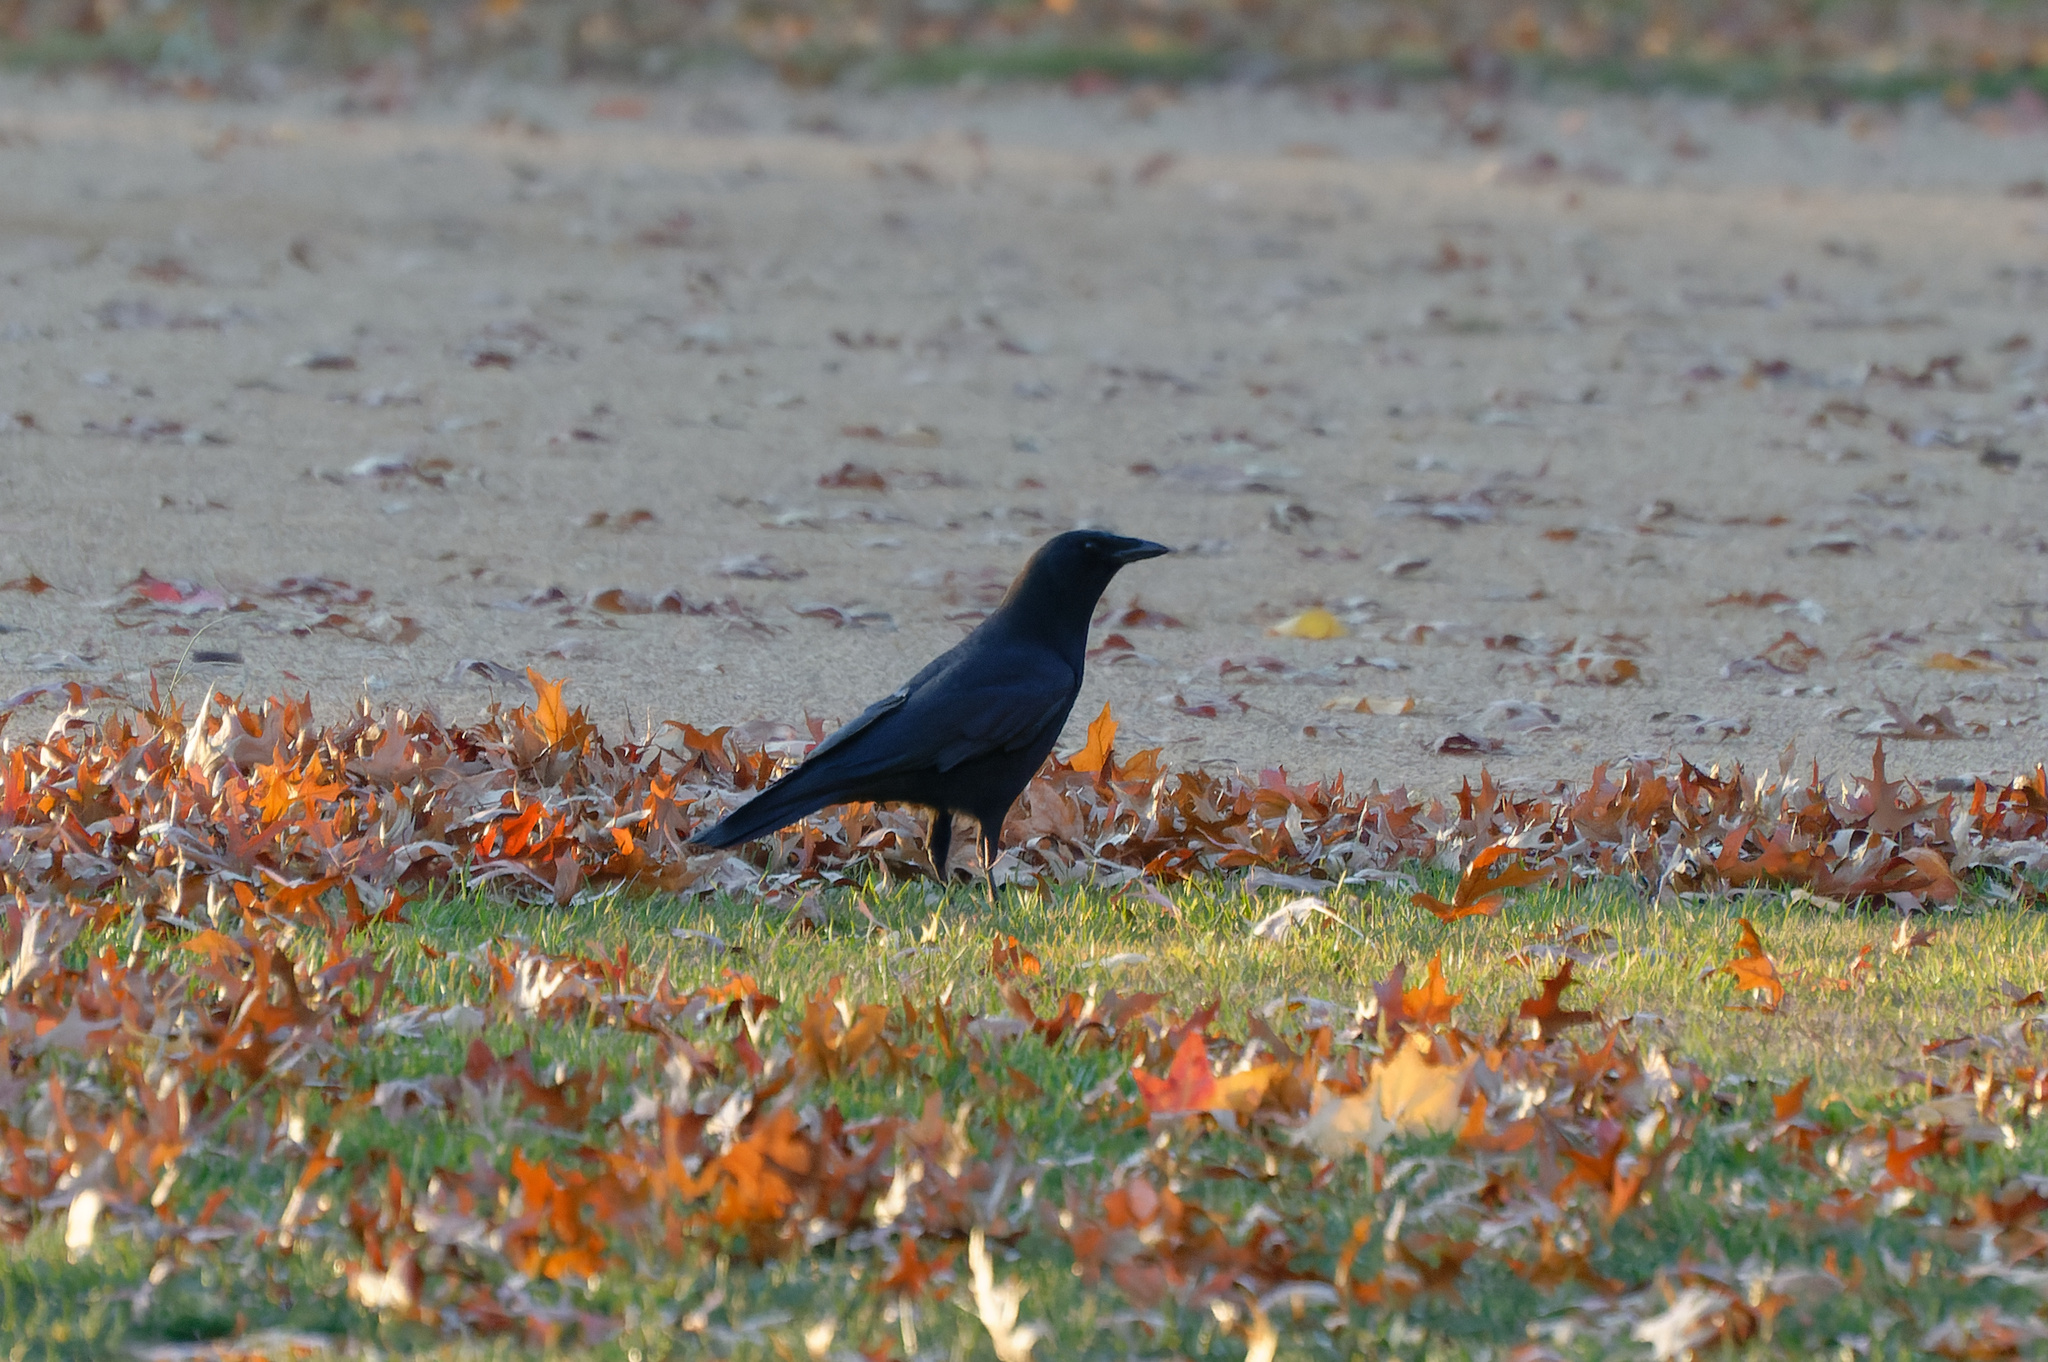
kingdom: Animalia
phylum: Chordata
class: Aves
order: Passeriformes
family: Corvidae
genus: Corvus
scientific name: Corvus brachyrhynchos
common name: American crow
